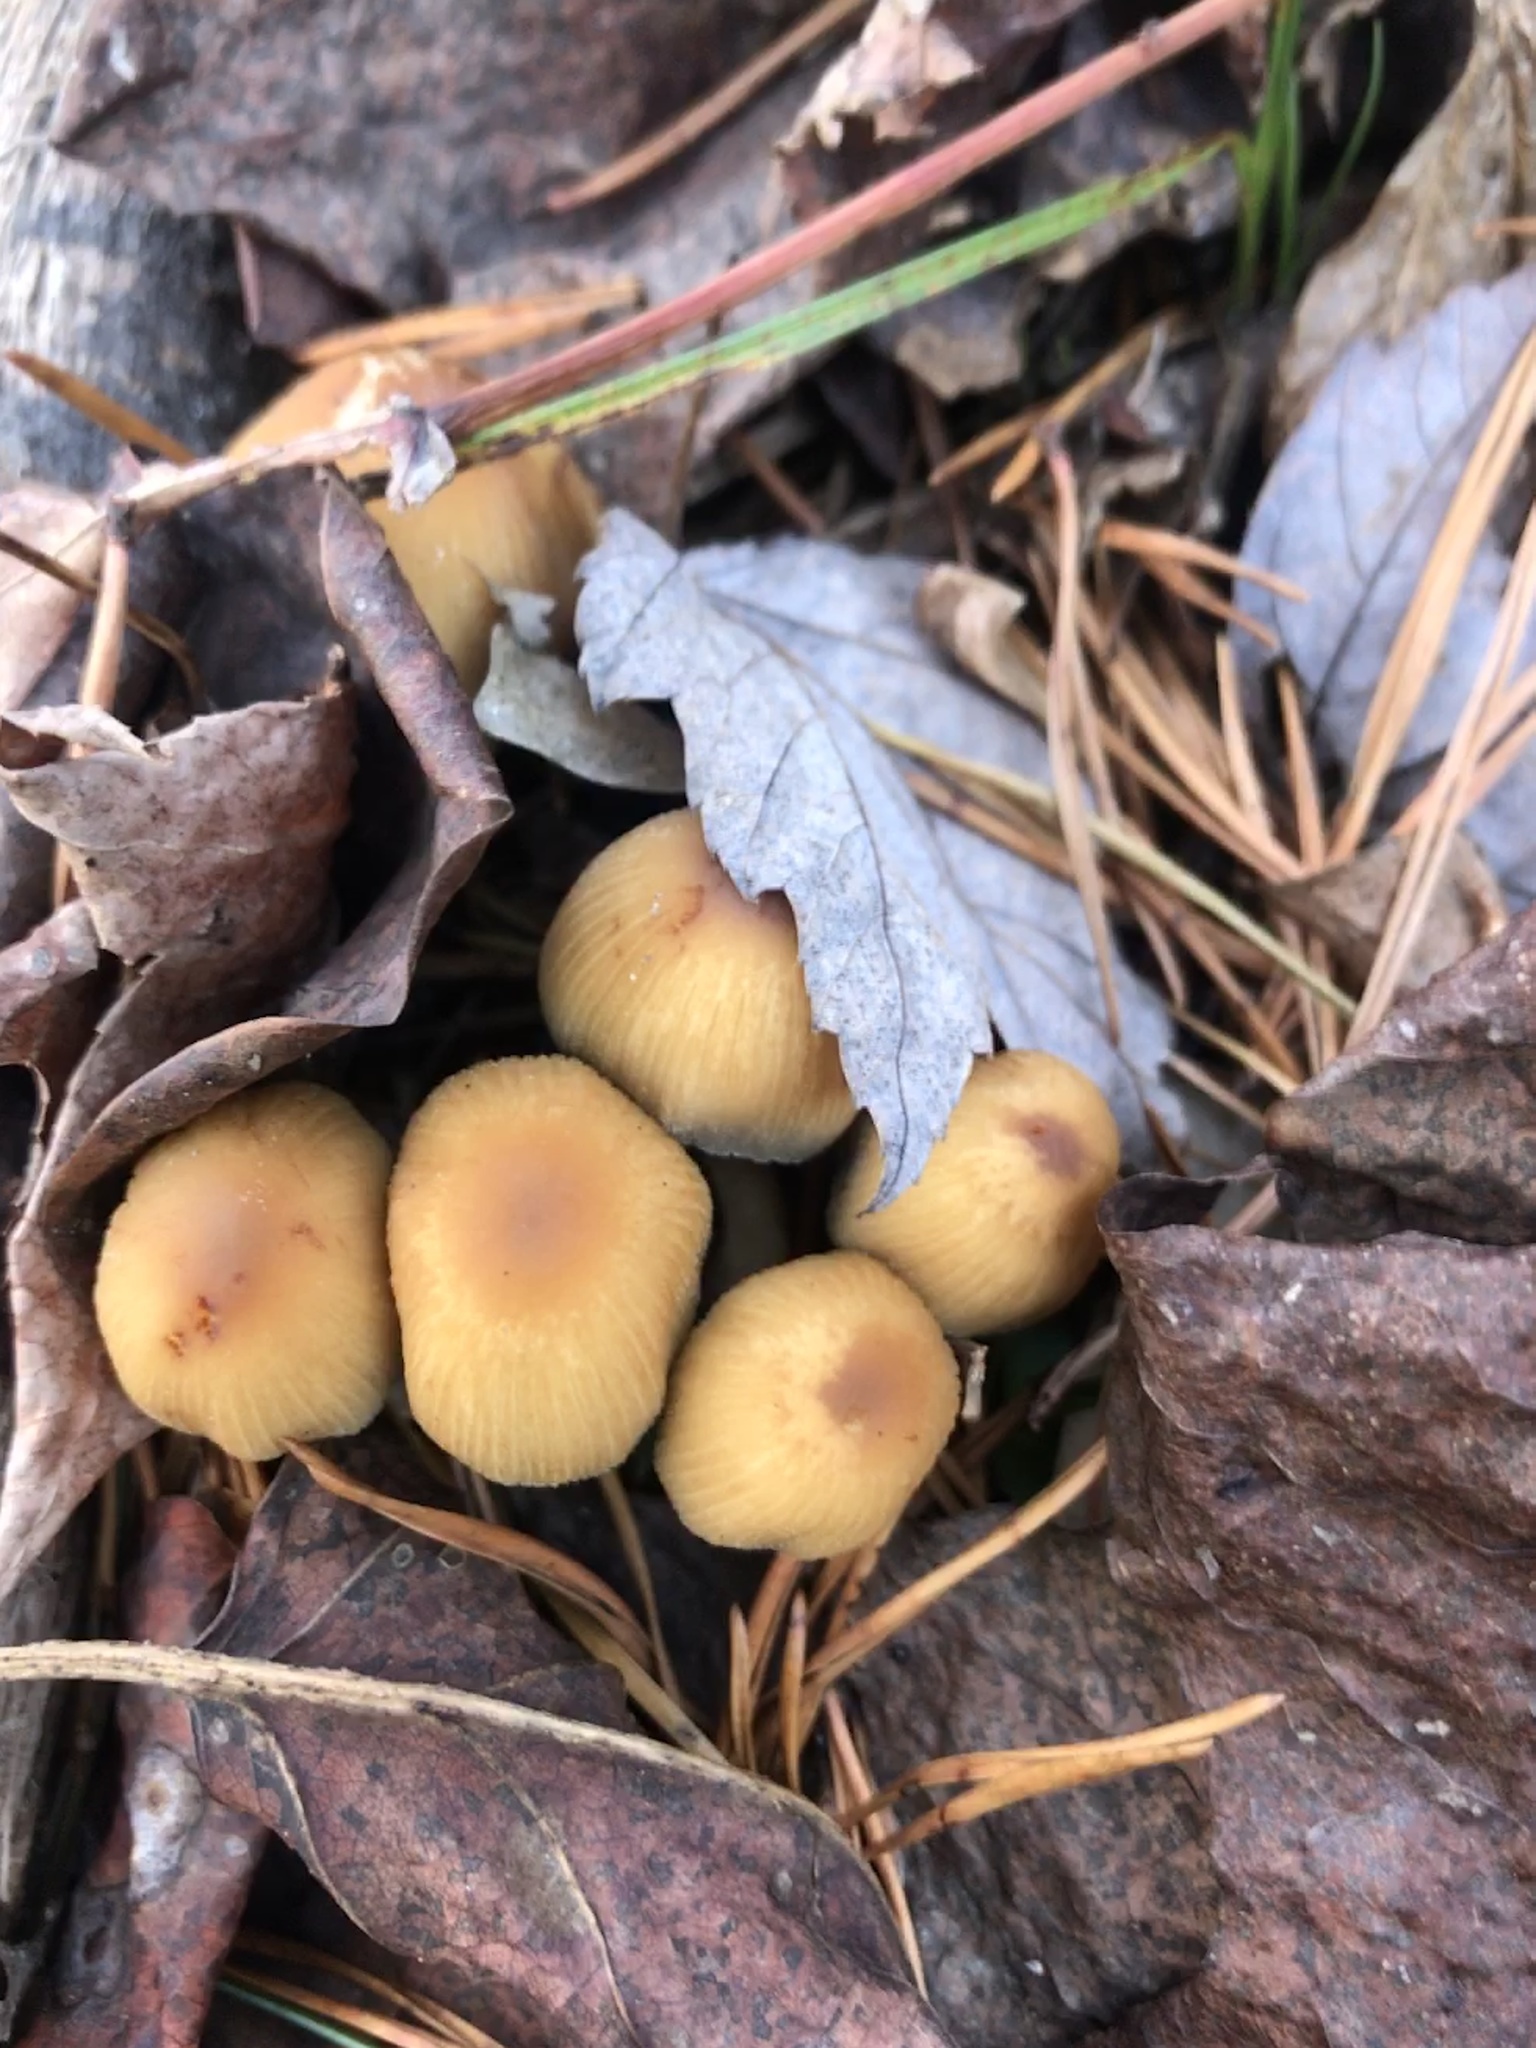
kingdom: Fungi
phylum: Basidiomycota
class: Agaricomycetes
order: Agaricales
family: Psathyrellaceae
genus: Coprinellus
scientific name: Coprinellus micaceus
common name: Glistening ink-cap
